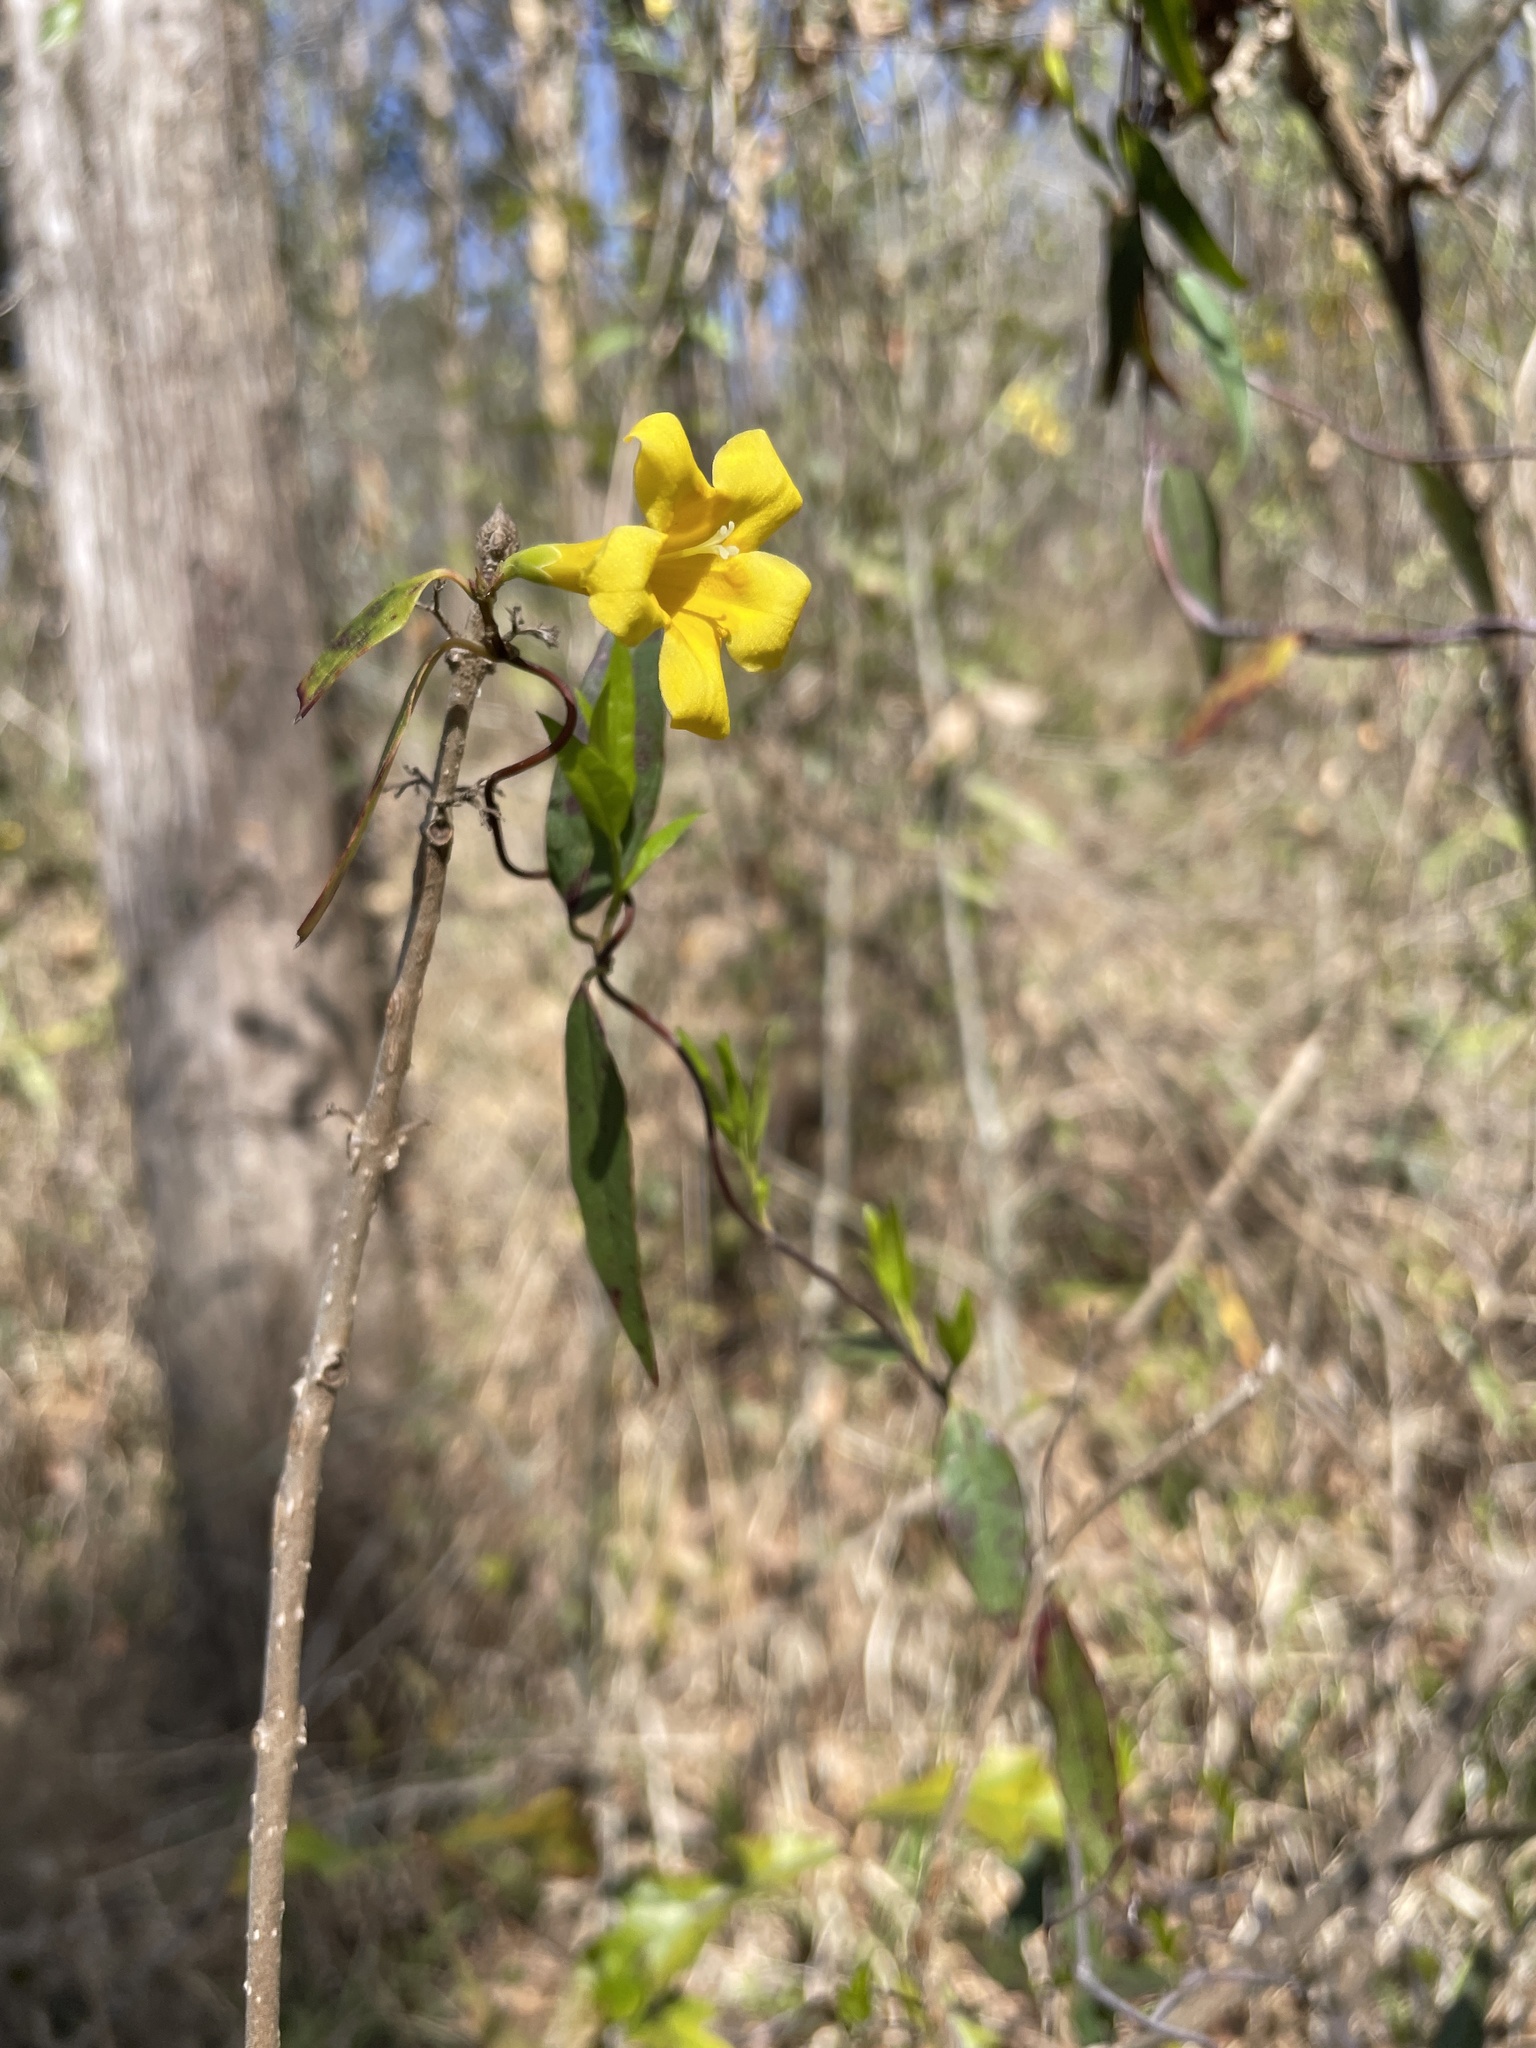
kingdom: Plantae
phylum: Tracheophyta
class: Magnoliopsida
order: Gentianales
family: Gelsemiaceae
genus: Gelsemium
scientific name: Gelsemium sempervirens
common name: Carolina-jasmine
